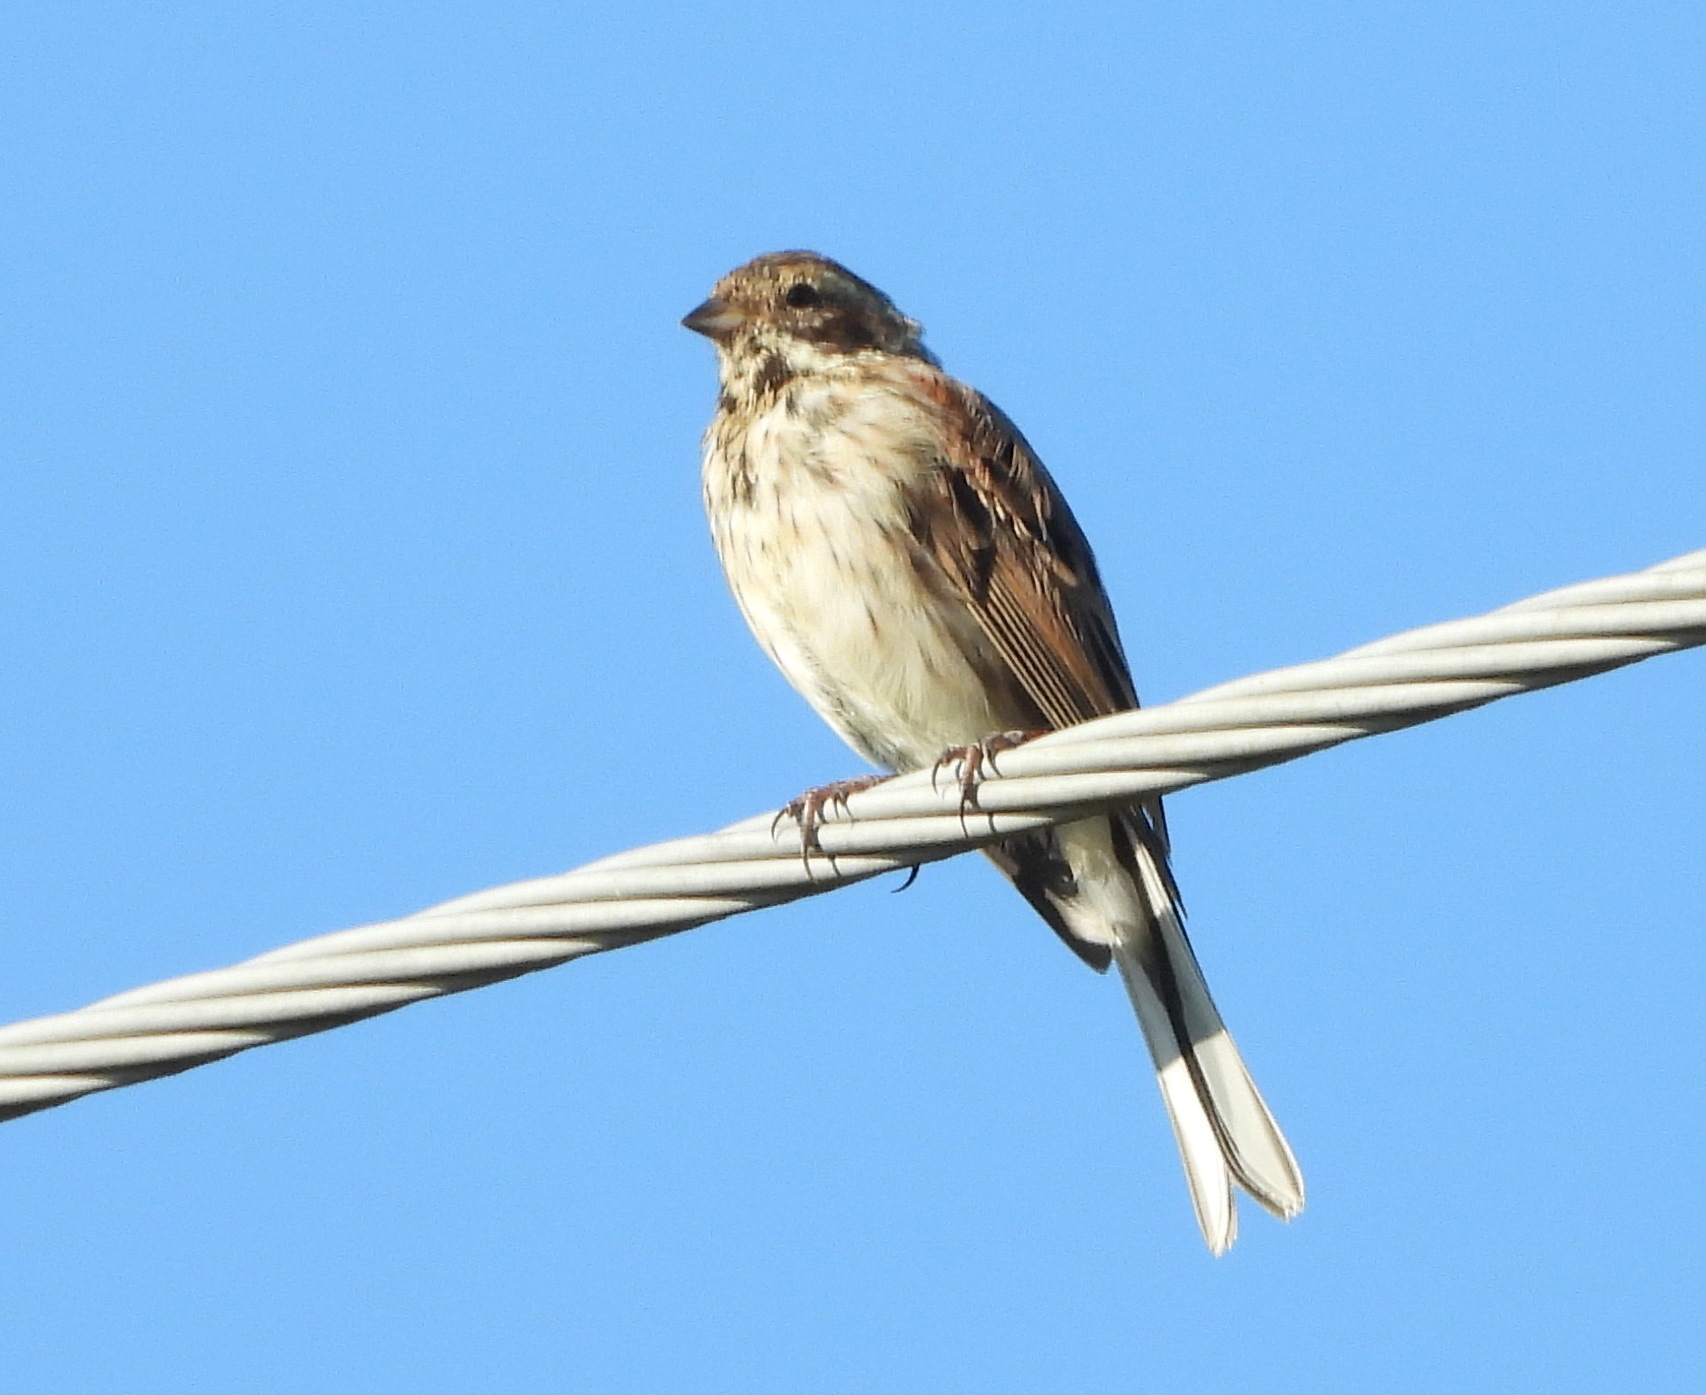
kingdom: Animalia
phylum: Chordata
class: Aves
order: Passeriformes
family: Emberizidae
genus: Emberiza
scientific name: Emberiza schoeniclus
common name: Reed bunting
